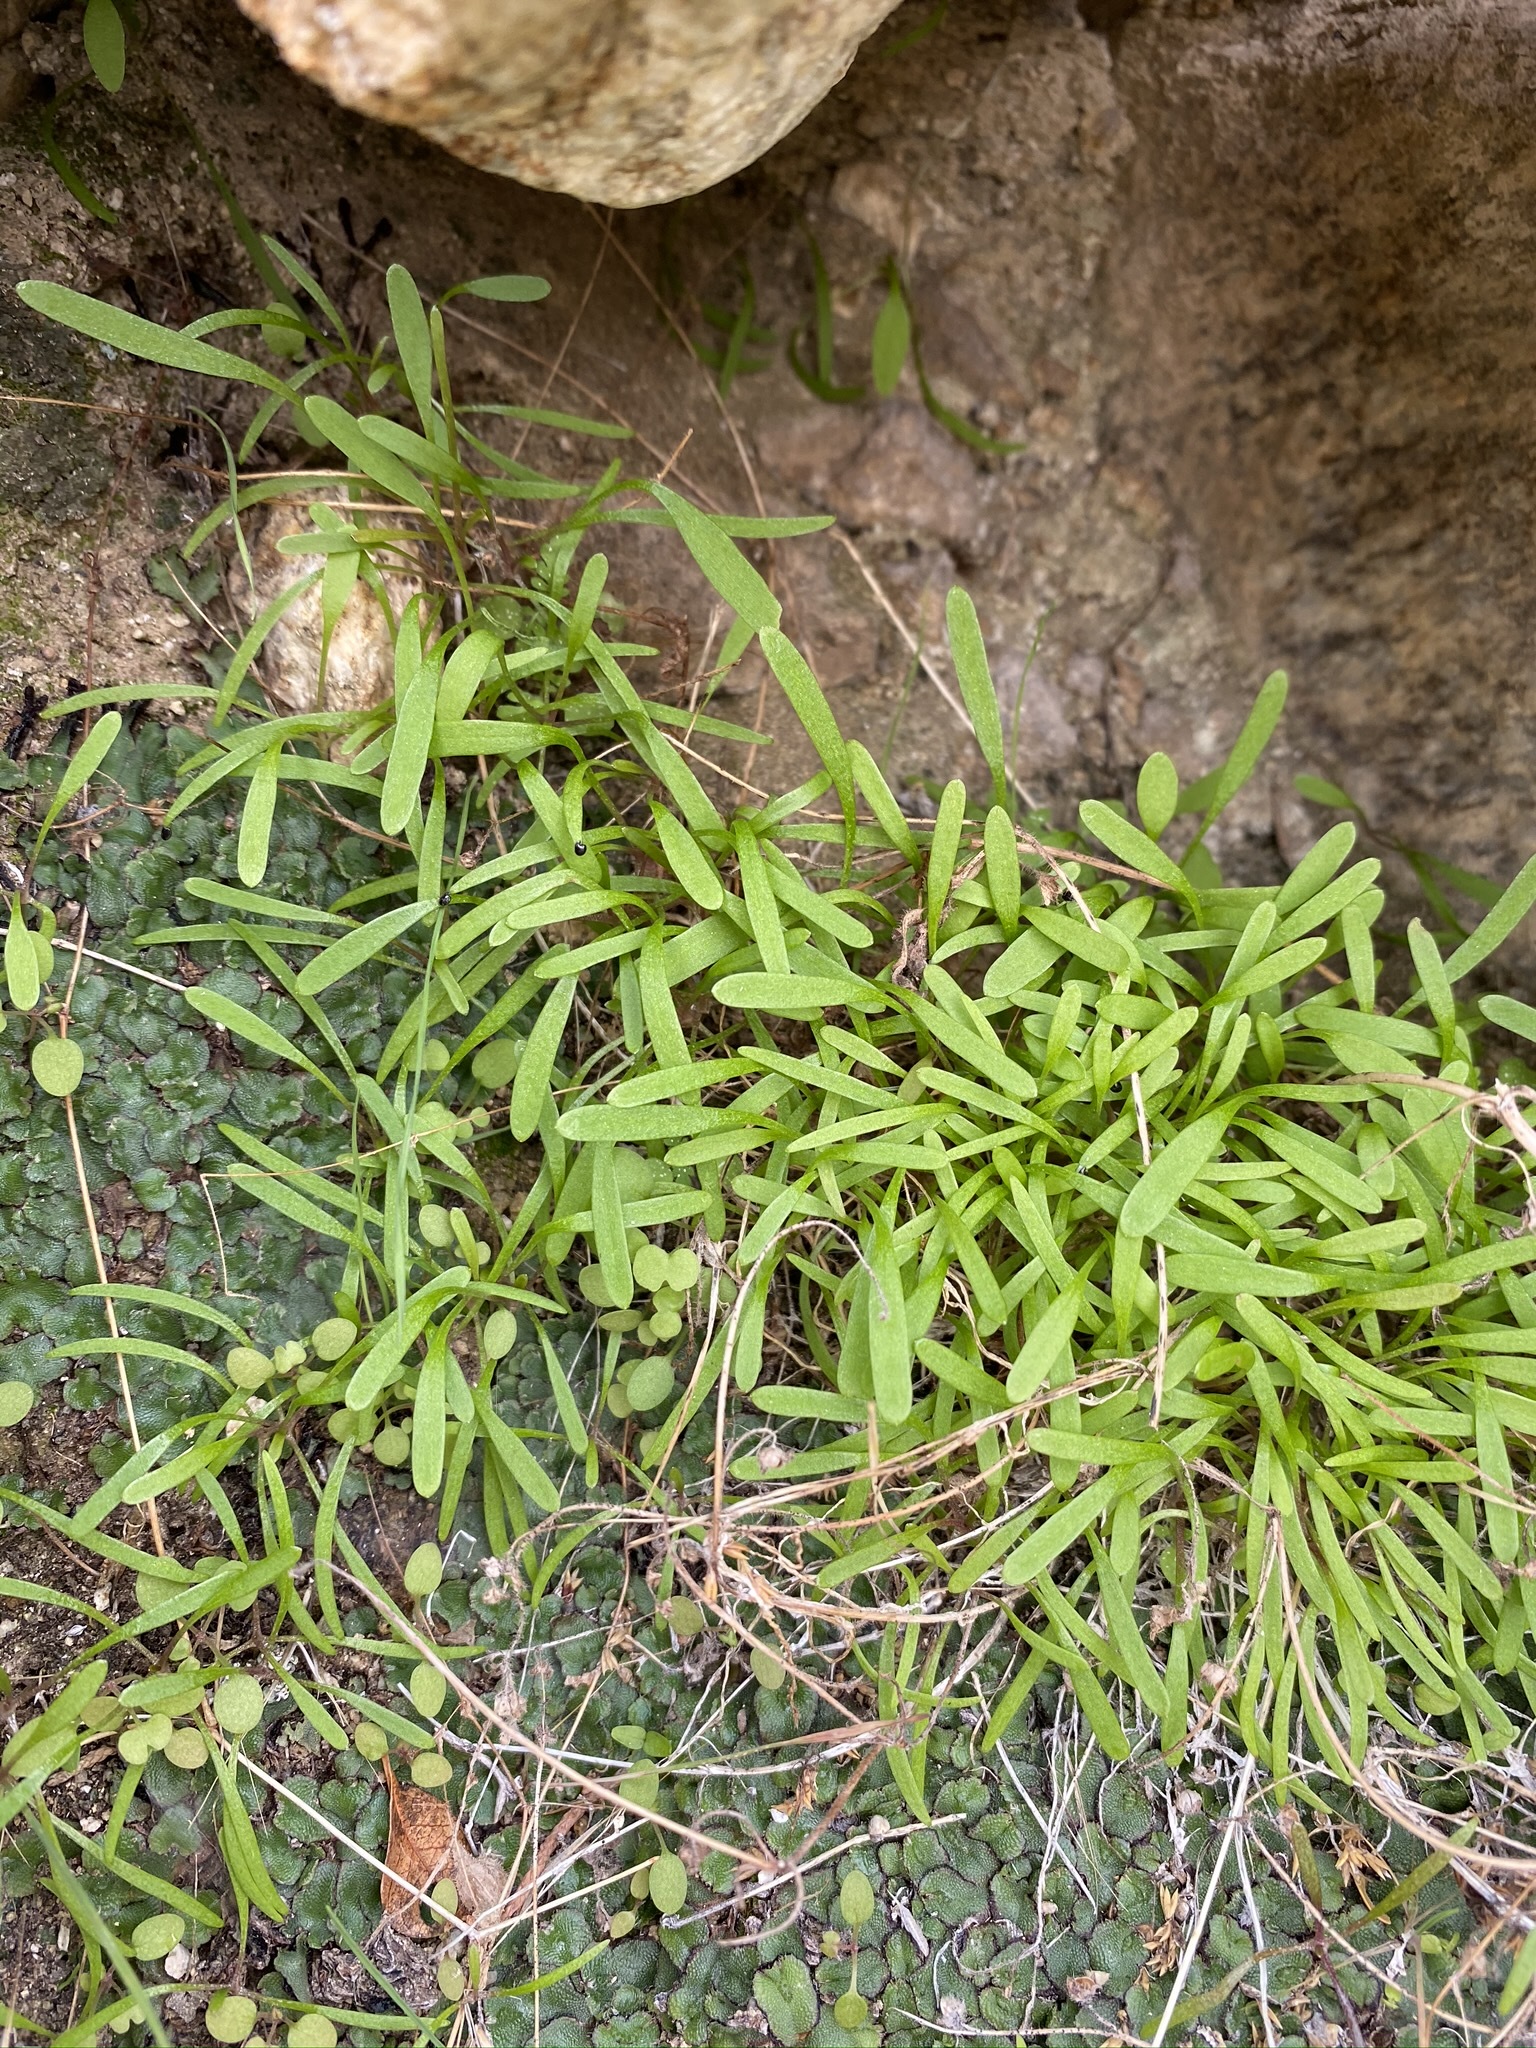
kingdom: Plantae
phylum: Tracheophyta
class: Magnoliopsida
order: Caryophyllales
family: Montiaceae
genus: Claytonia
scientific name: Claytonia parviflora
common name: Indian-lettuce
